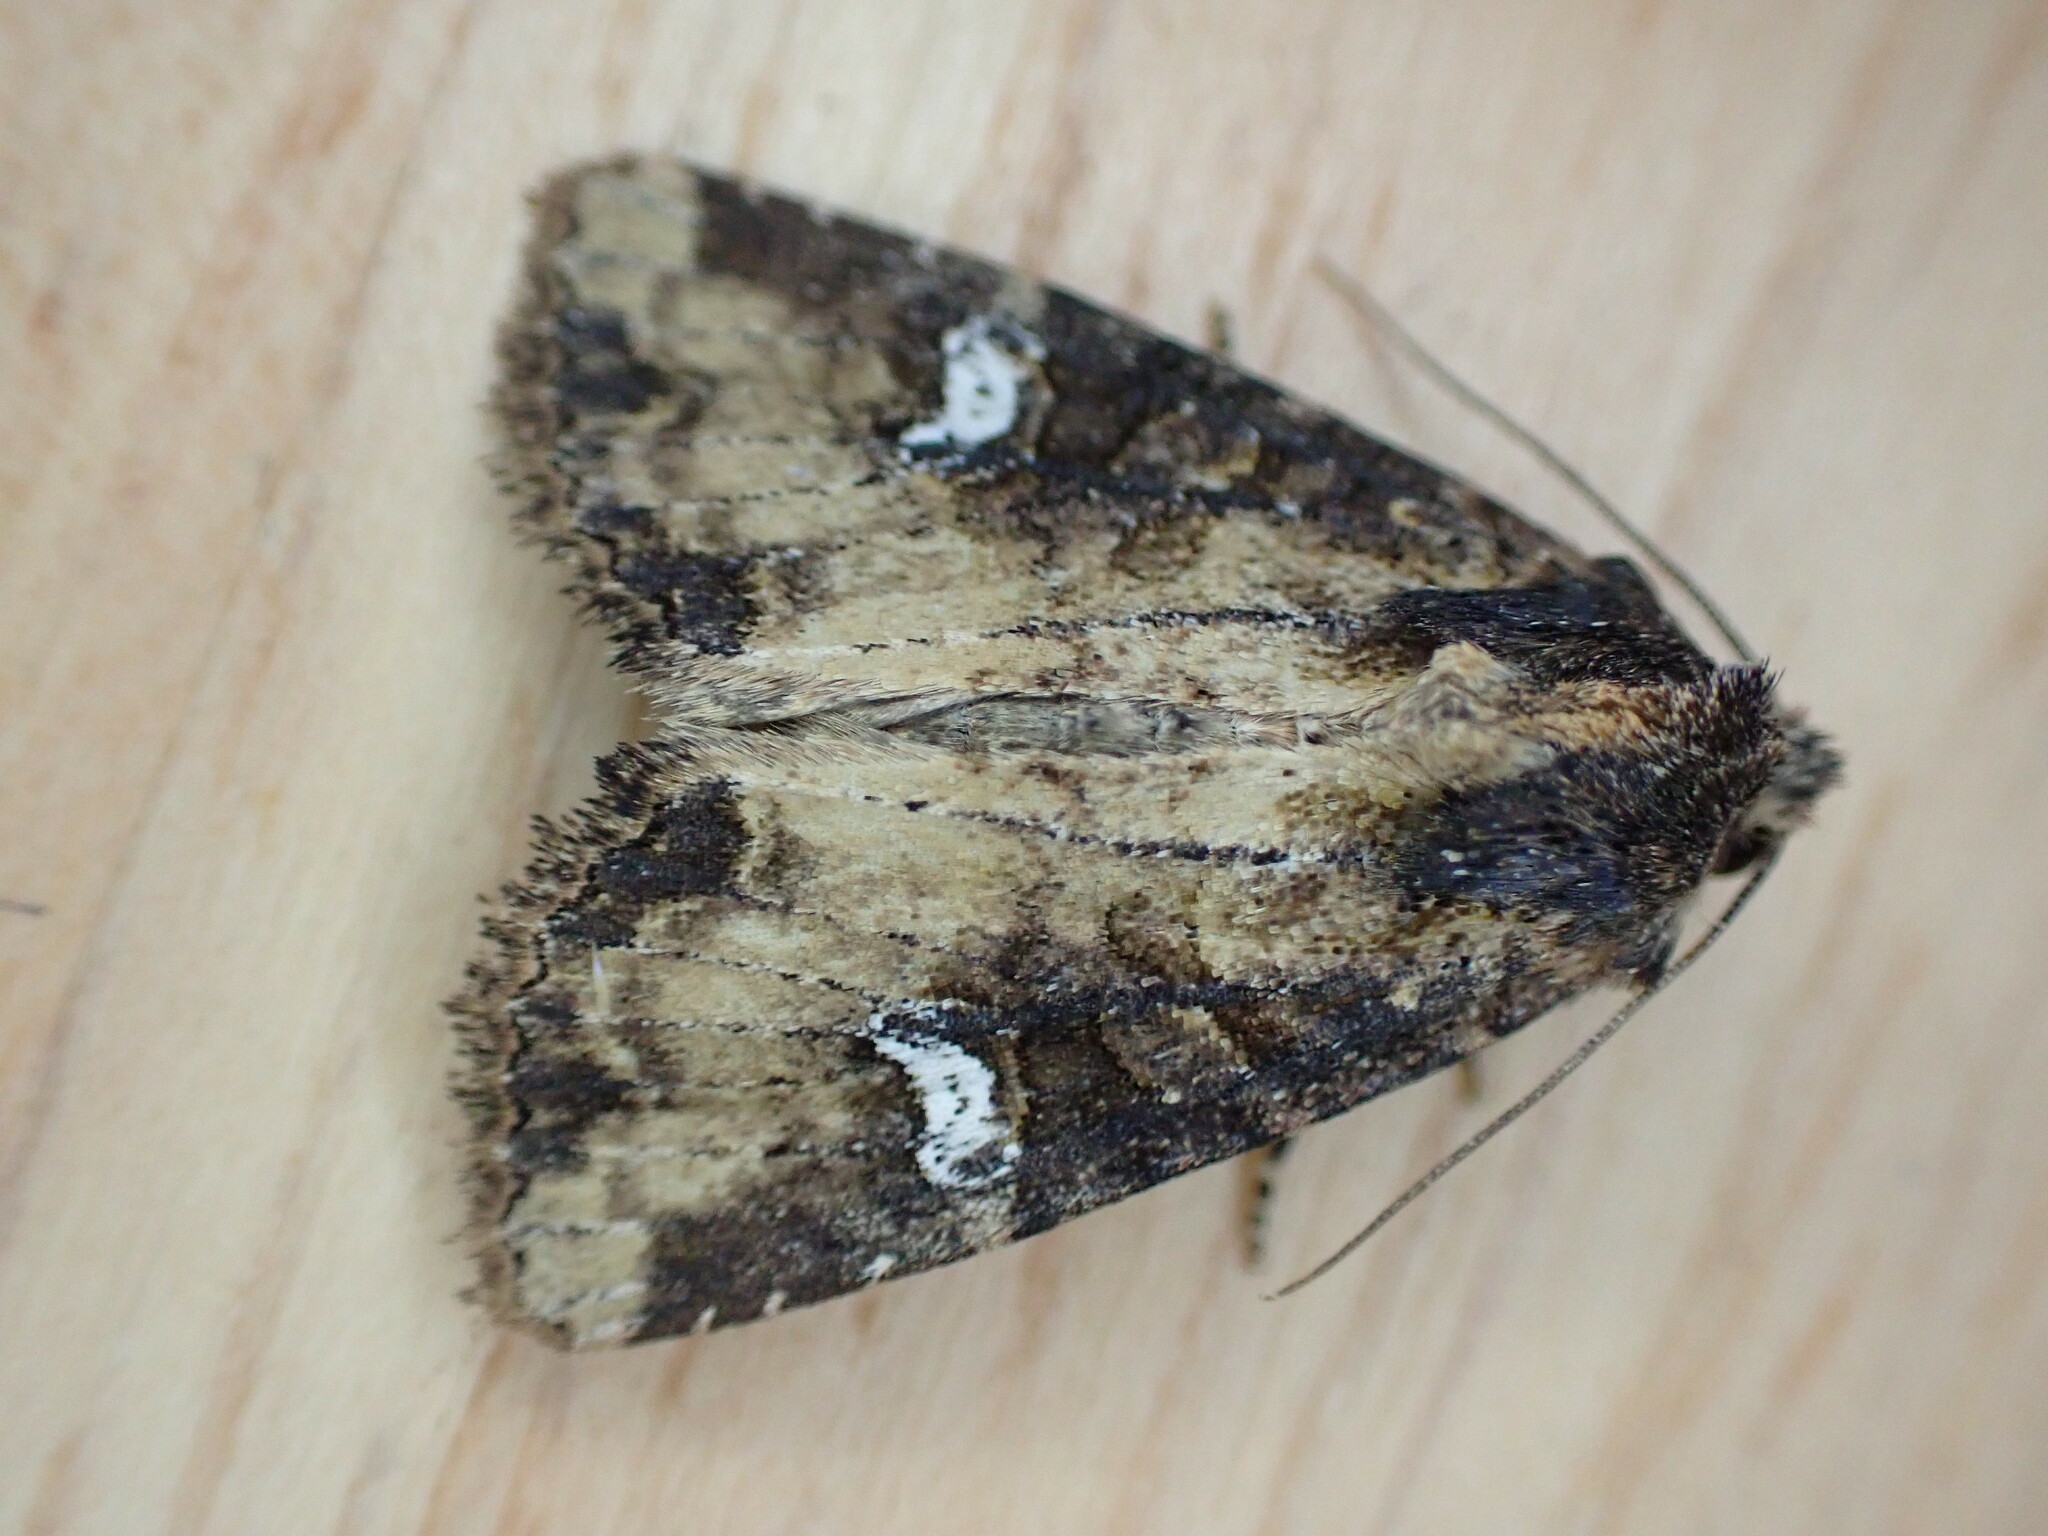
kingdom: Animalia
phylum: Arthropoda
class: Insecta
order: Lepidoptera
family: Noctuidae
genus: Mesapamea
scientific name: Mesapamea
